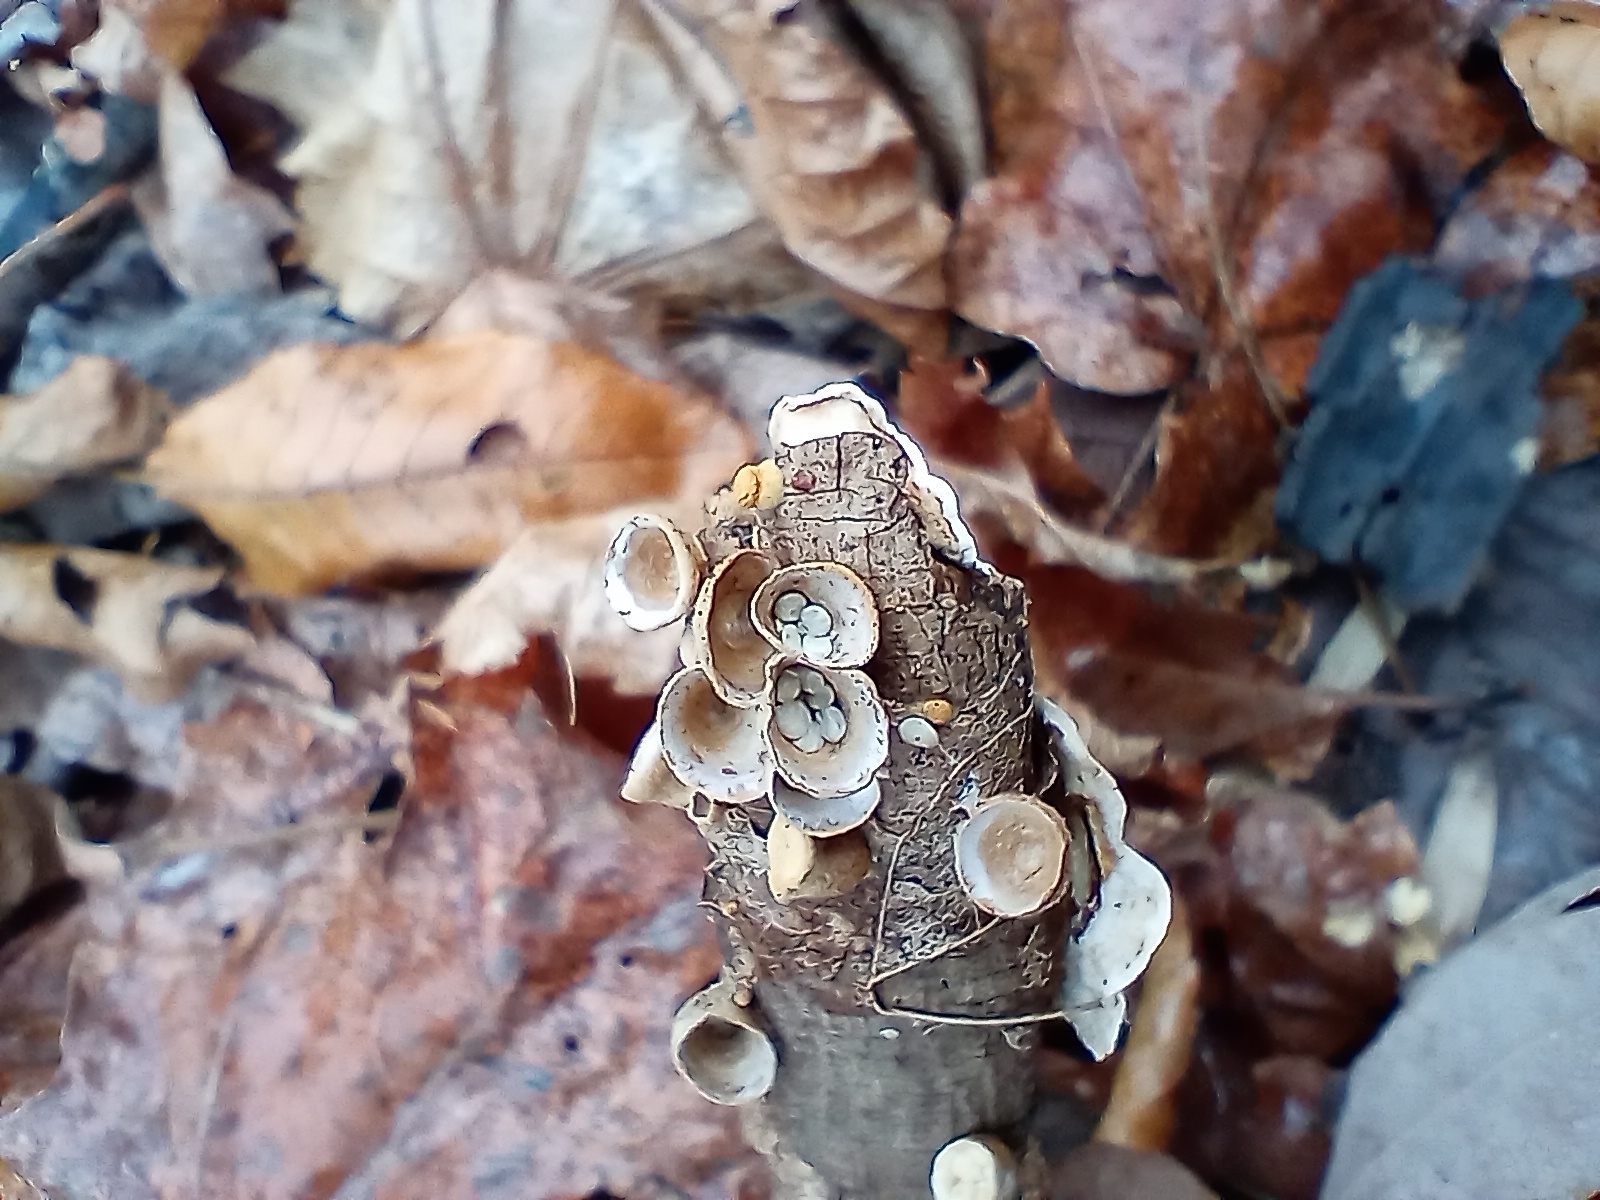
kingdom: Fungi
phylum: Basidiomycota
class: Agaricomycetes
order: Agaricales
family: Nidulariaceae
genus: Crucibulum
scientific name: Crucibulum laeve
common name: Common bird's nest
